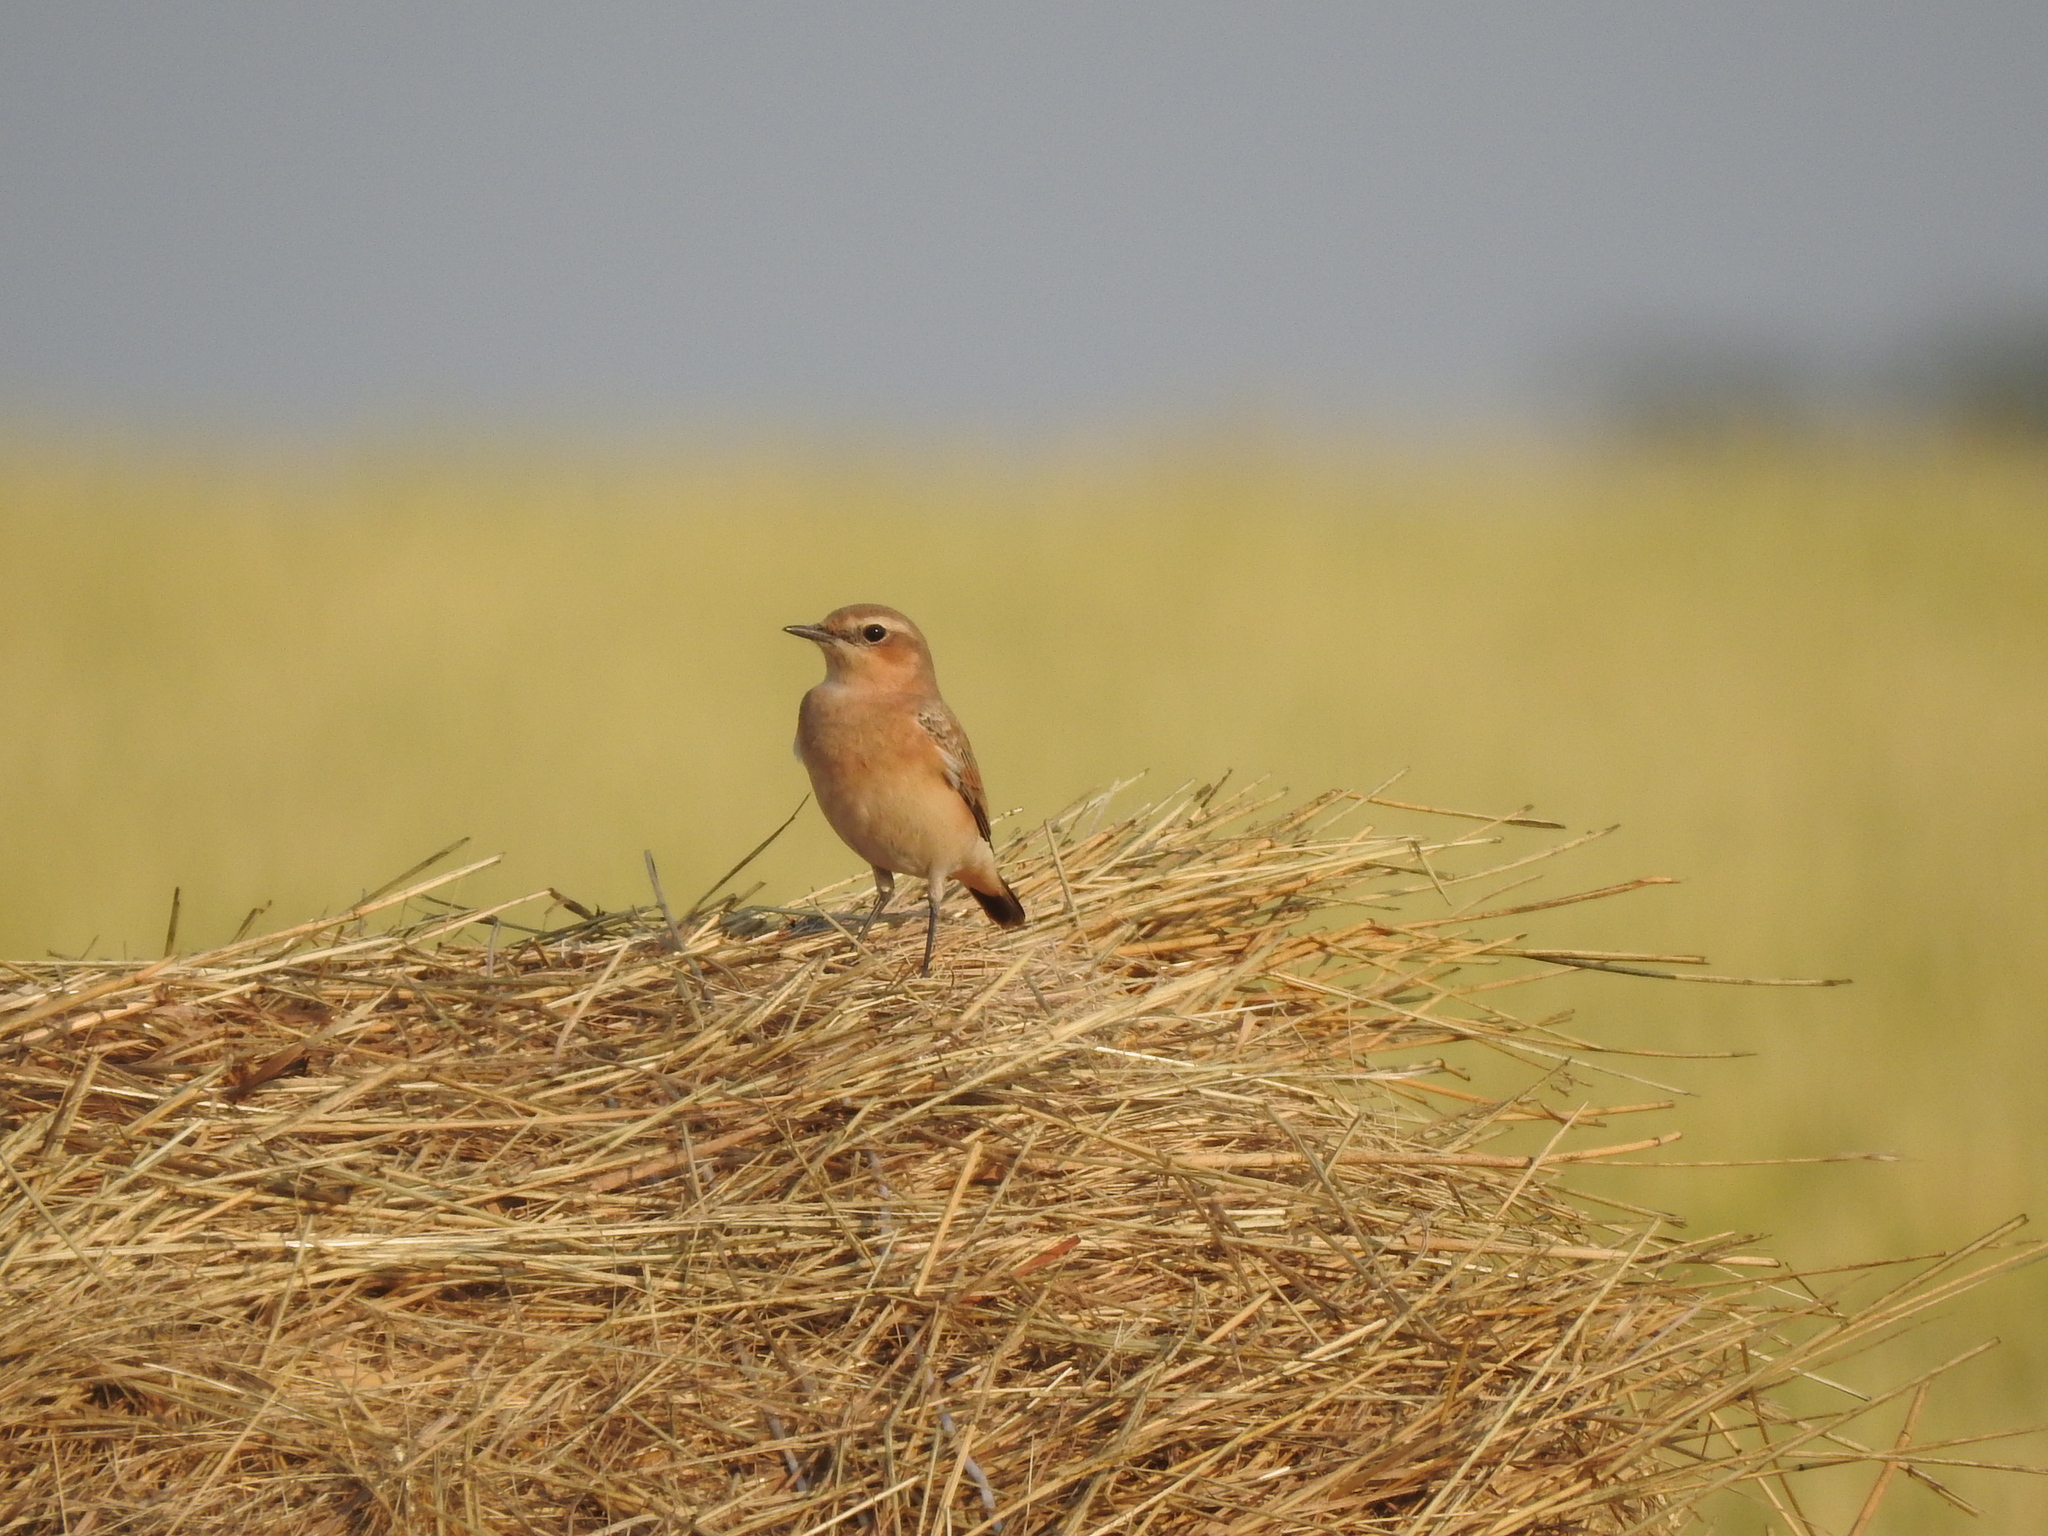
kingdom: Animalia
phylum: Chordata
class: Aves
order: Passeriformes
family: Muscicapidae
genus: Oenanthe
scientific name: Oenanthe oenanthe
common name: Northern wheatear
